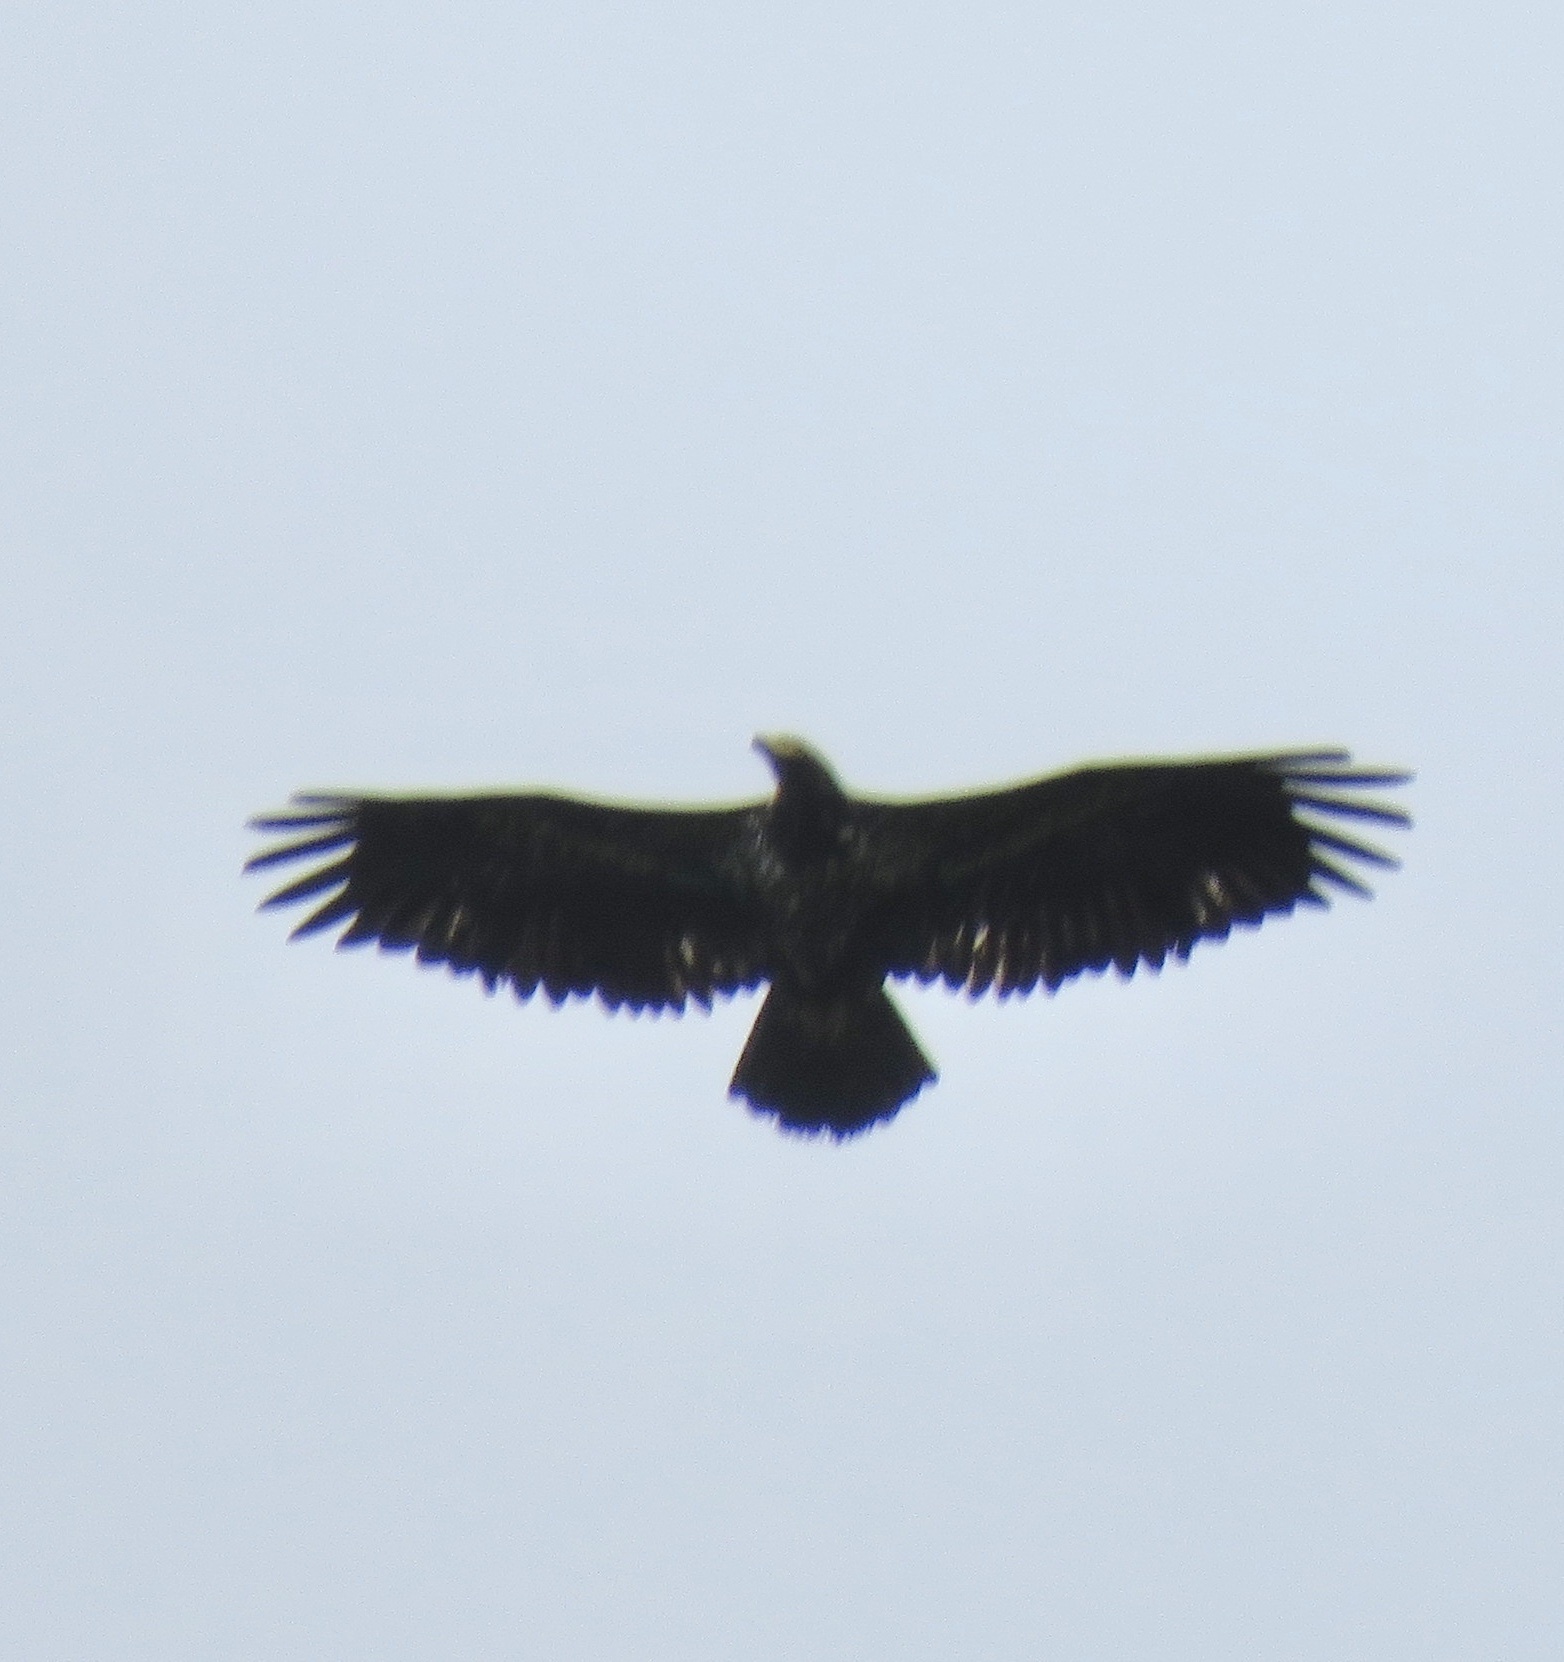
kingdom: Animalia
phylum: Chordata
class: Aves
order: Accipitriformes
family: Accipitridae
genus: Haliaeetus
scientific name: Haliaeetus leucocephalus
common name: Bald eagle
